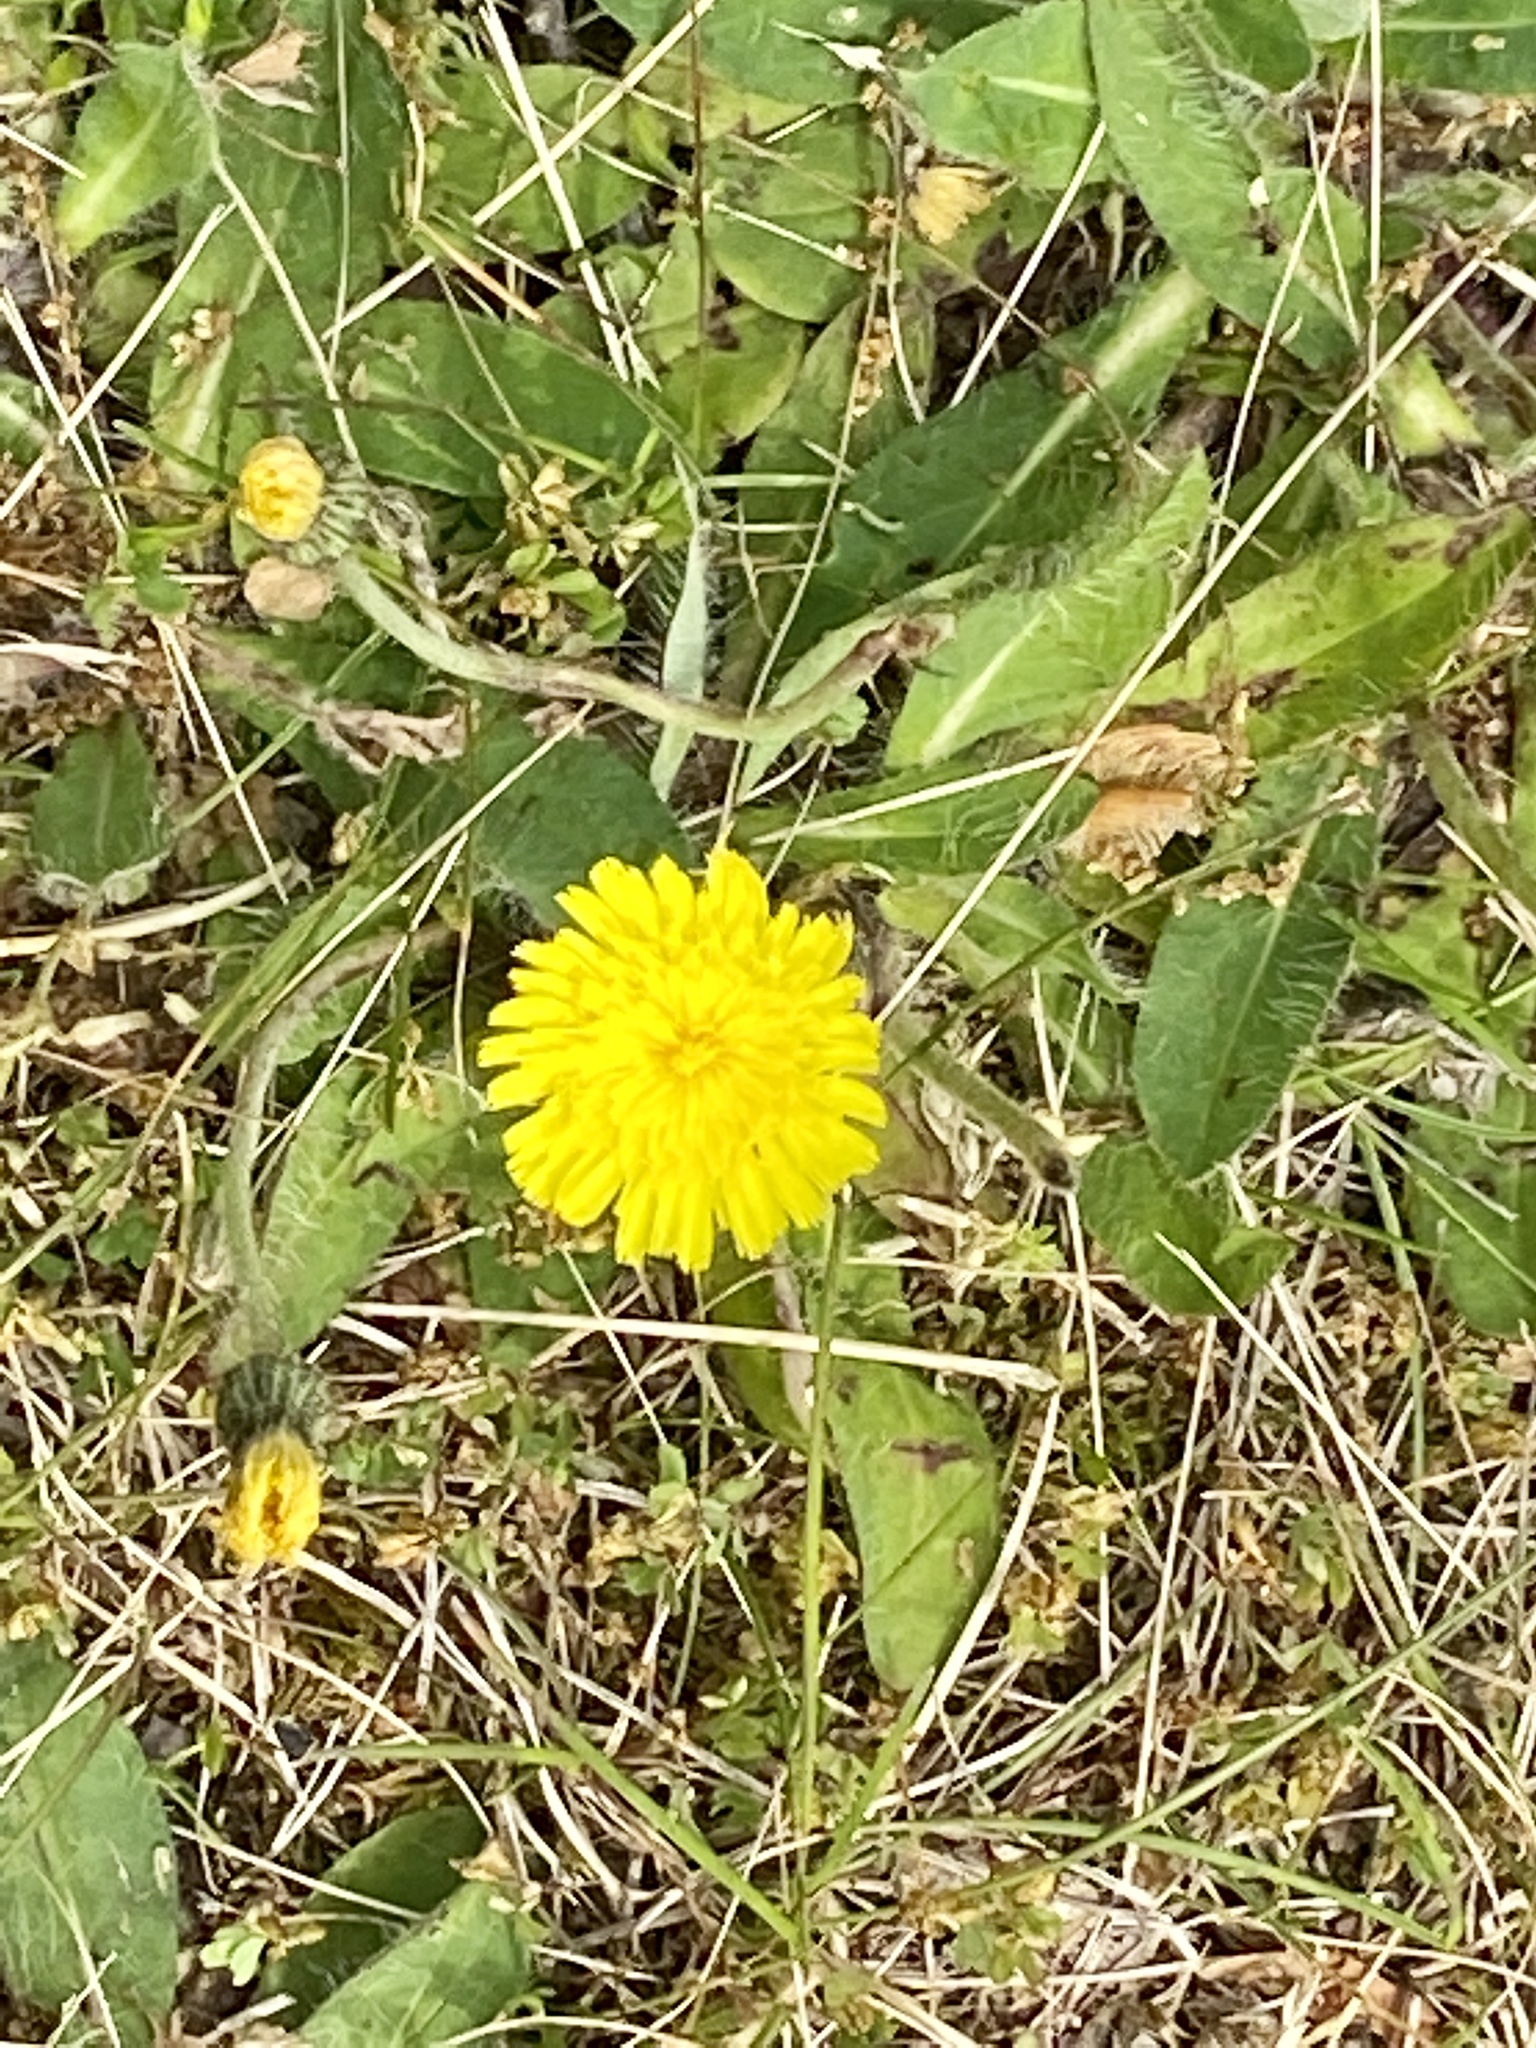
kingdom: Plantae
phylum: Tracheophyta
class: Magnoliopsida
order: Asterales
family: Asteraceae
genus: Pilosella
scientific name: Pilosella officinarum
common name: Mouse-ear hawkweed
